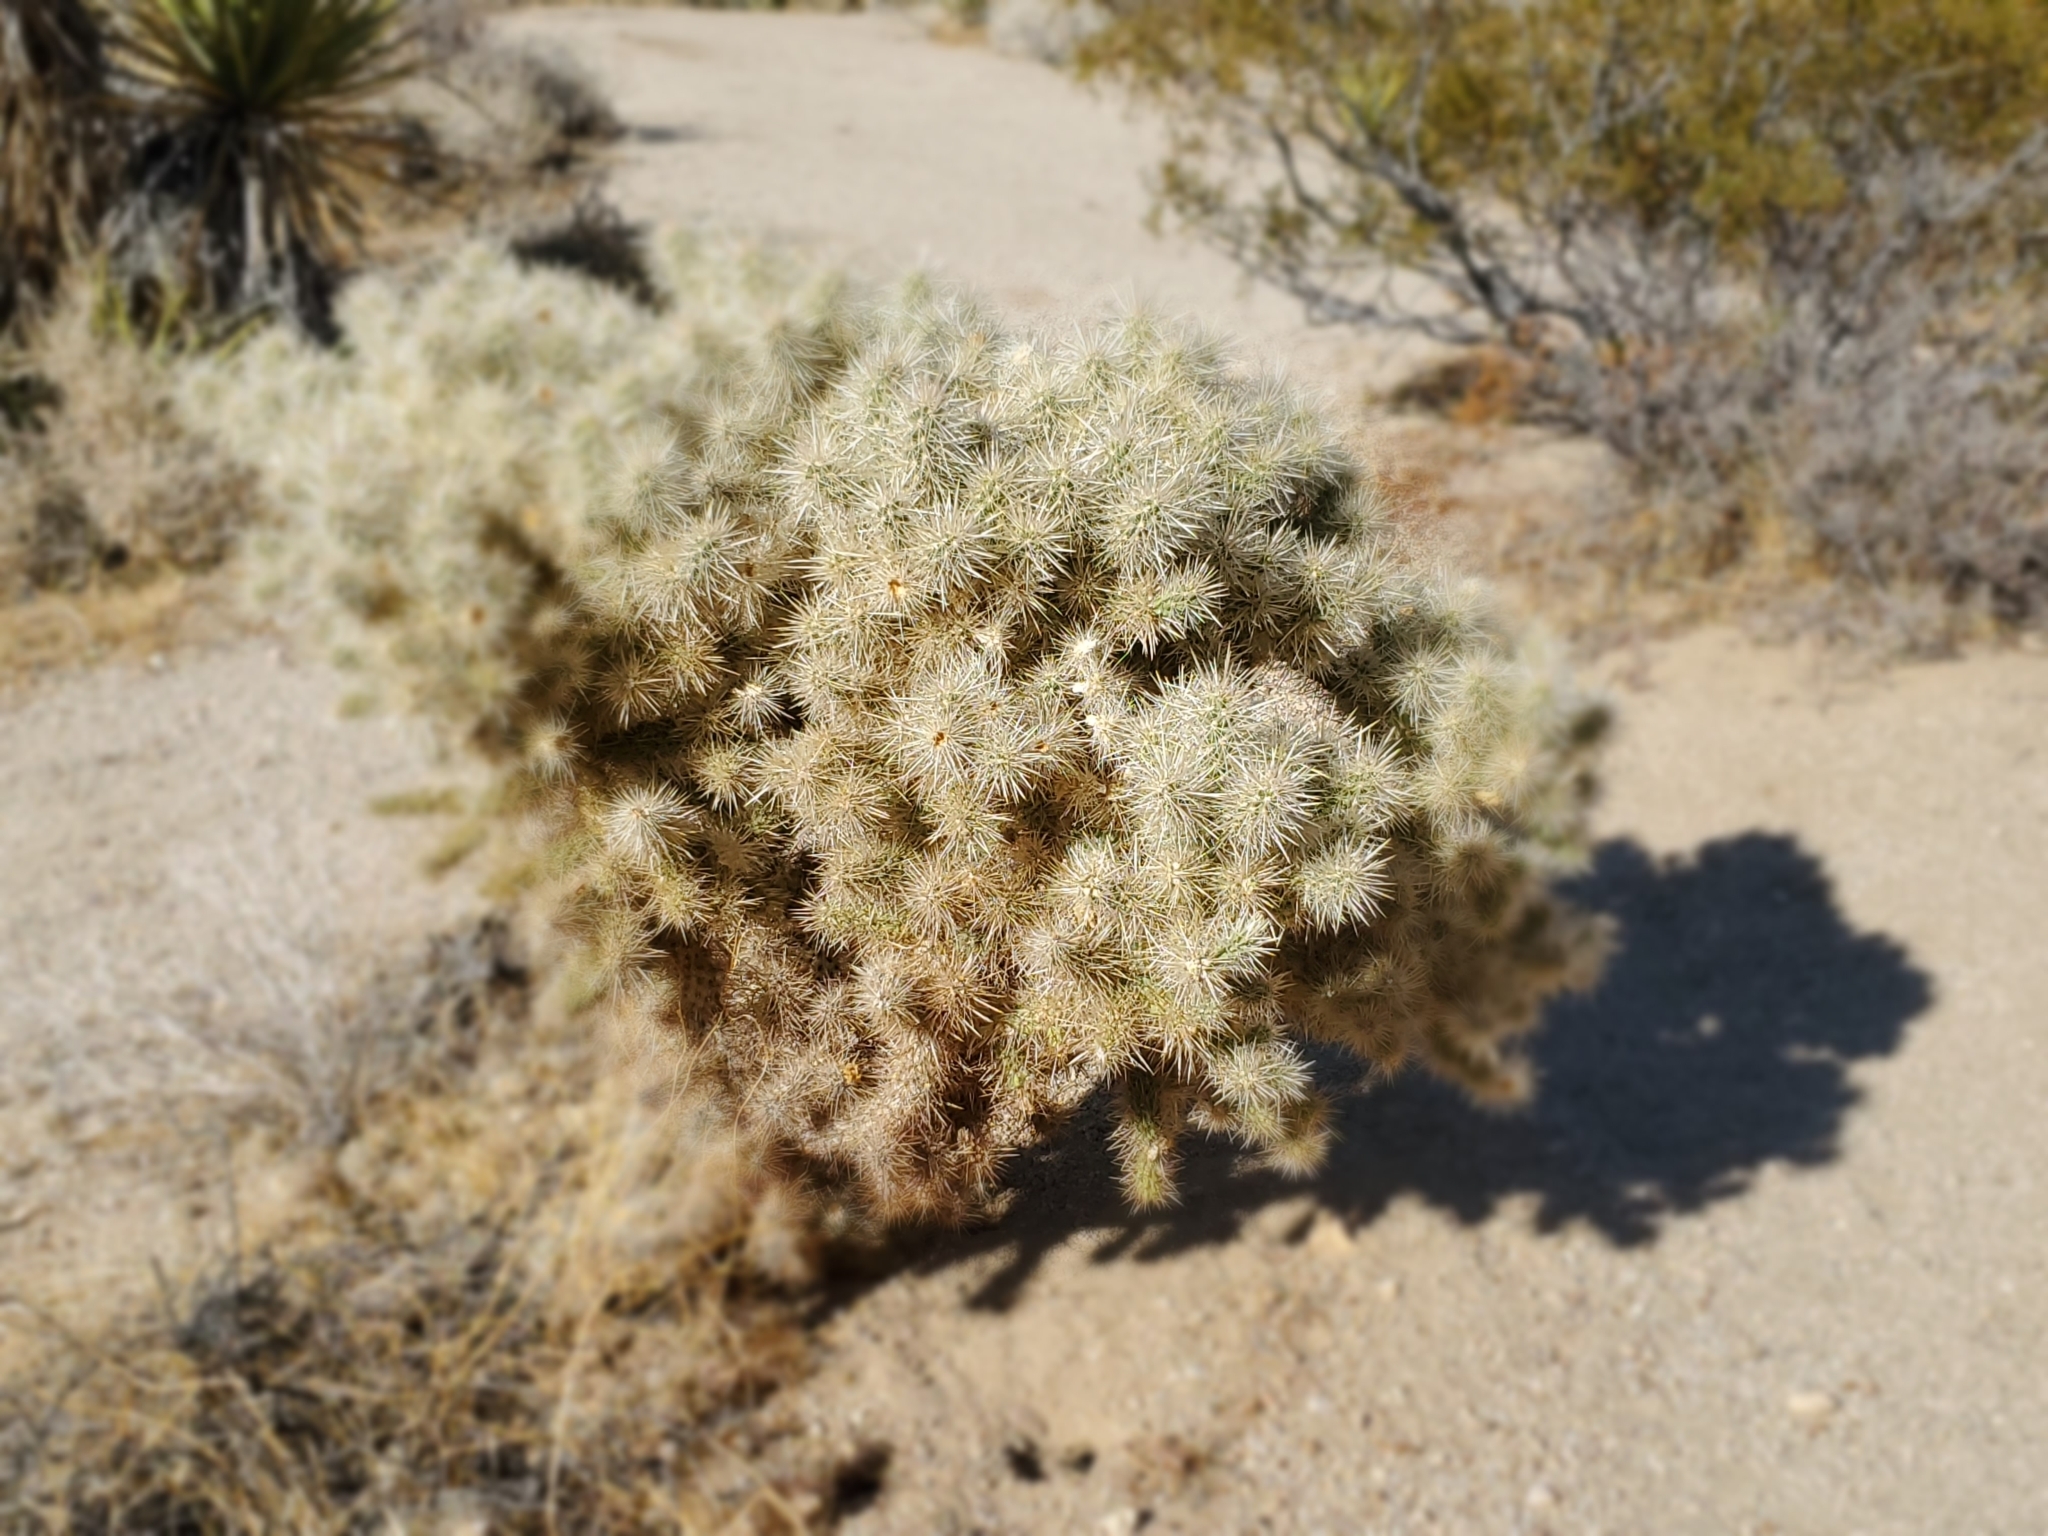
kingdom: Plantae
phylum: Tracheophyta
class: Magnoliopsida
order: Caryophyllales
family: Cactaceae
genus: Cylindropuntia
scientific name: Cylindropuntia echinocarpa
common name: Ground cholla
